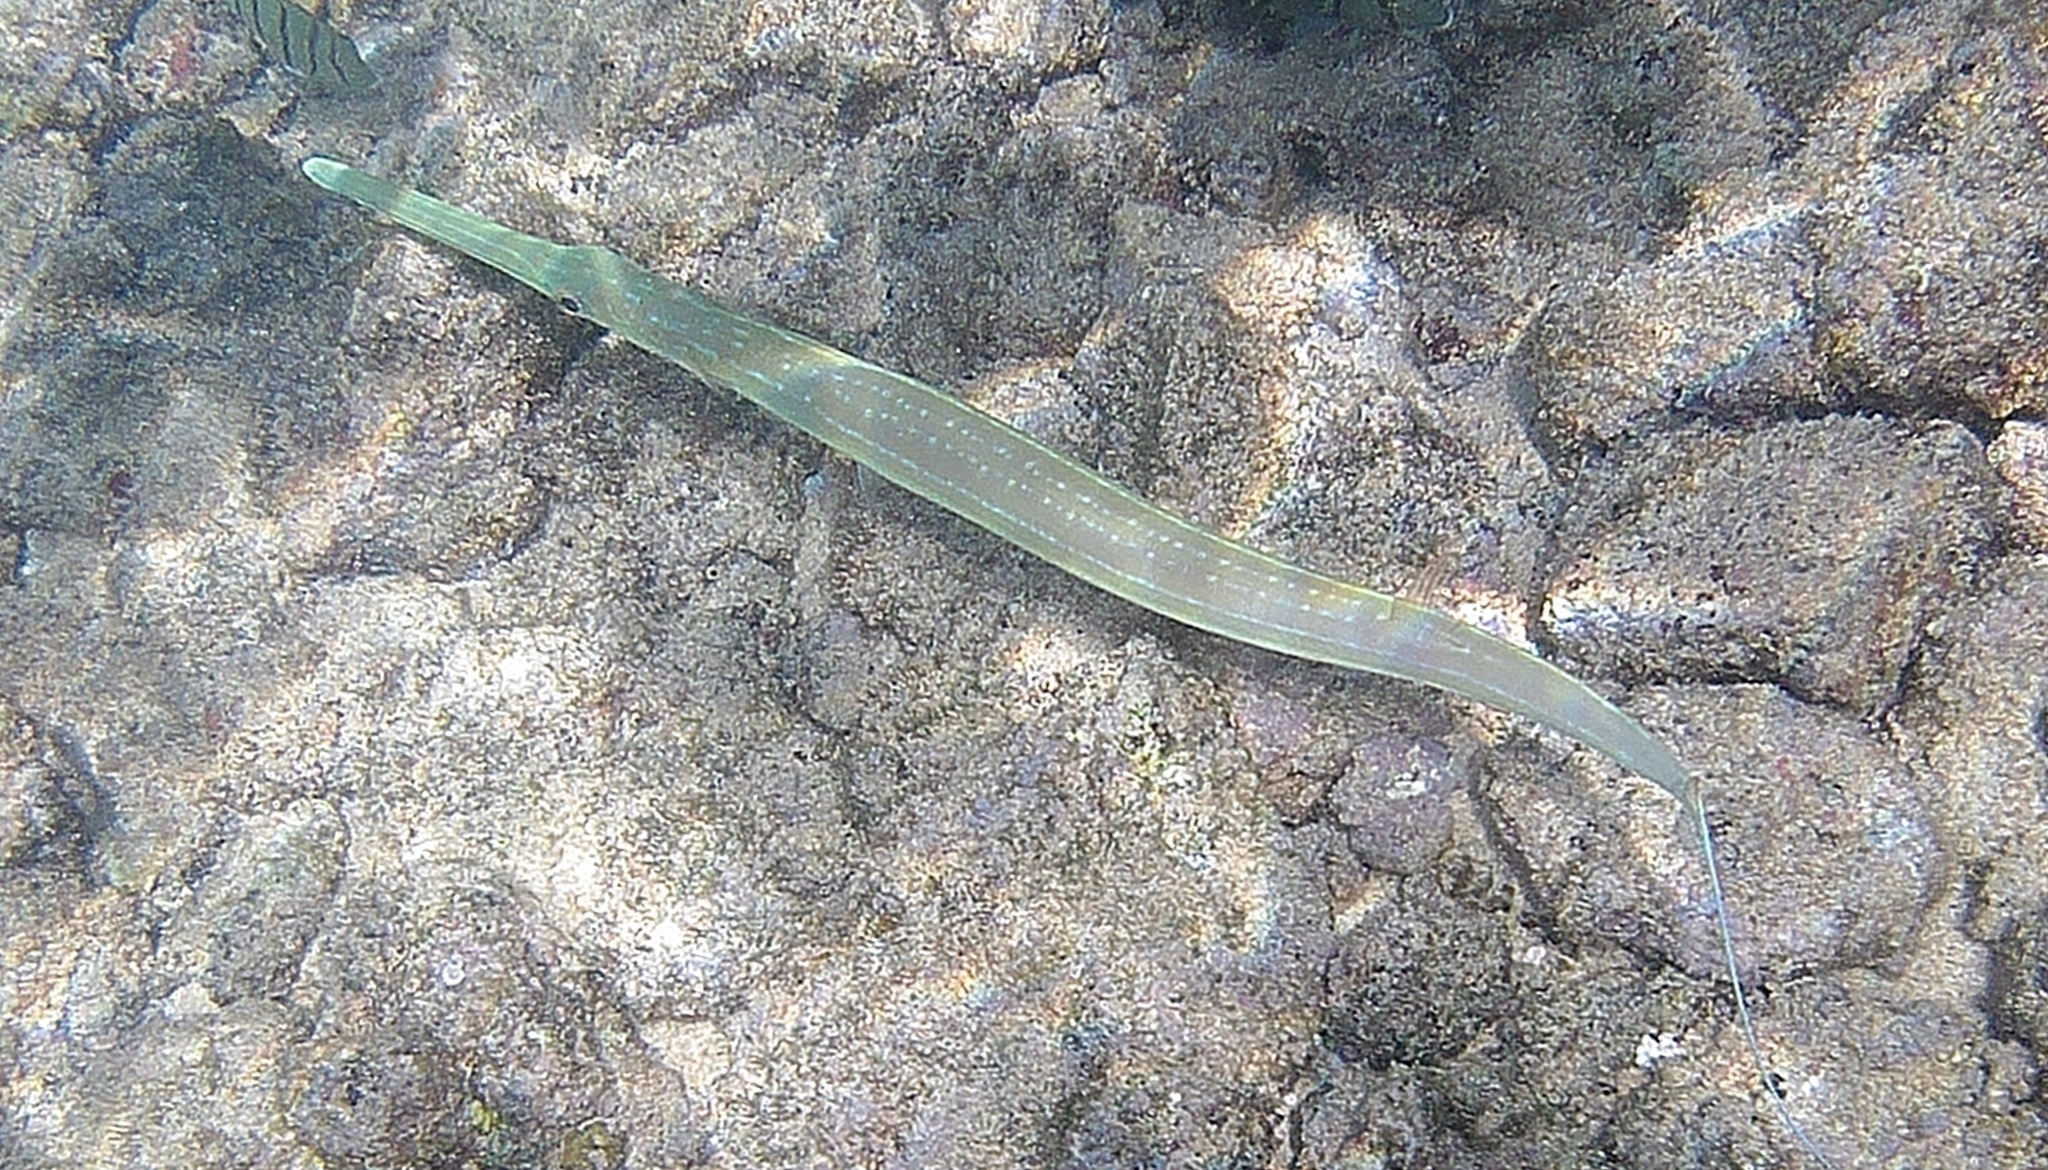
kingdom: Animalia
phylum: Chordata
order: Syngnathiformes
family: Fistulariidae
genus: Fistularia
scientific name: Fistularia commersonii
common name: Bluespotted cornetfish
